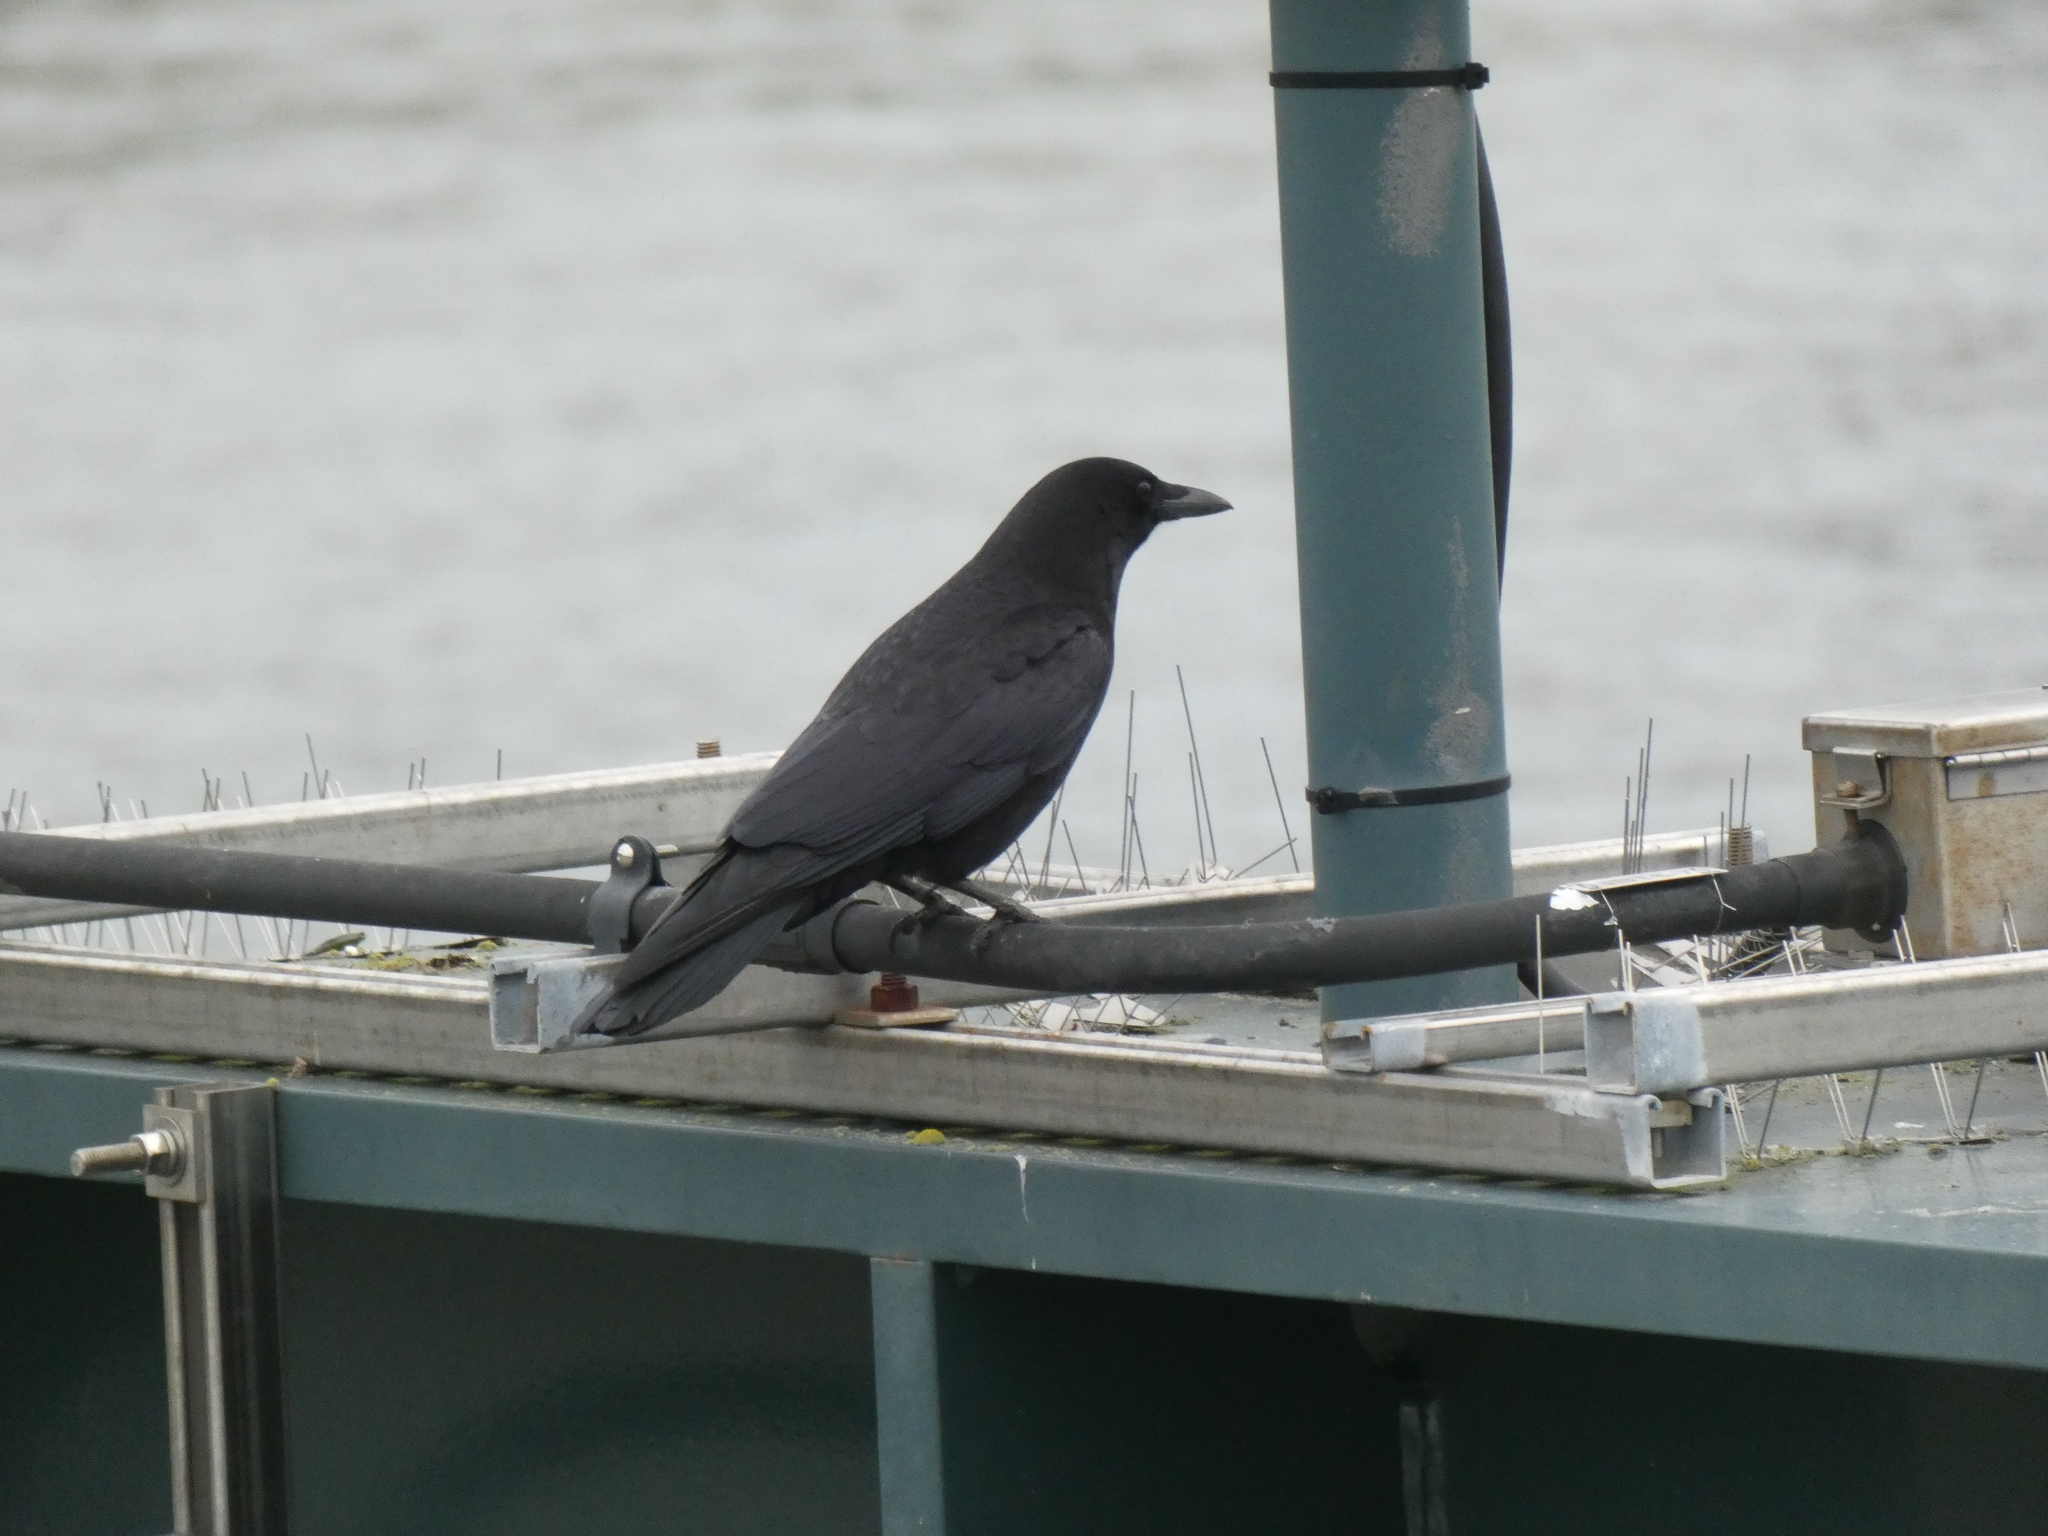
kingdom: Animalia
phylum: Chordata
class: Aves
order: Passeriformes
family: Corvidae
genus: Corvus
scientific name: Corvus brachyrhynchos
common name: American crow
